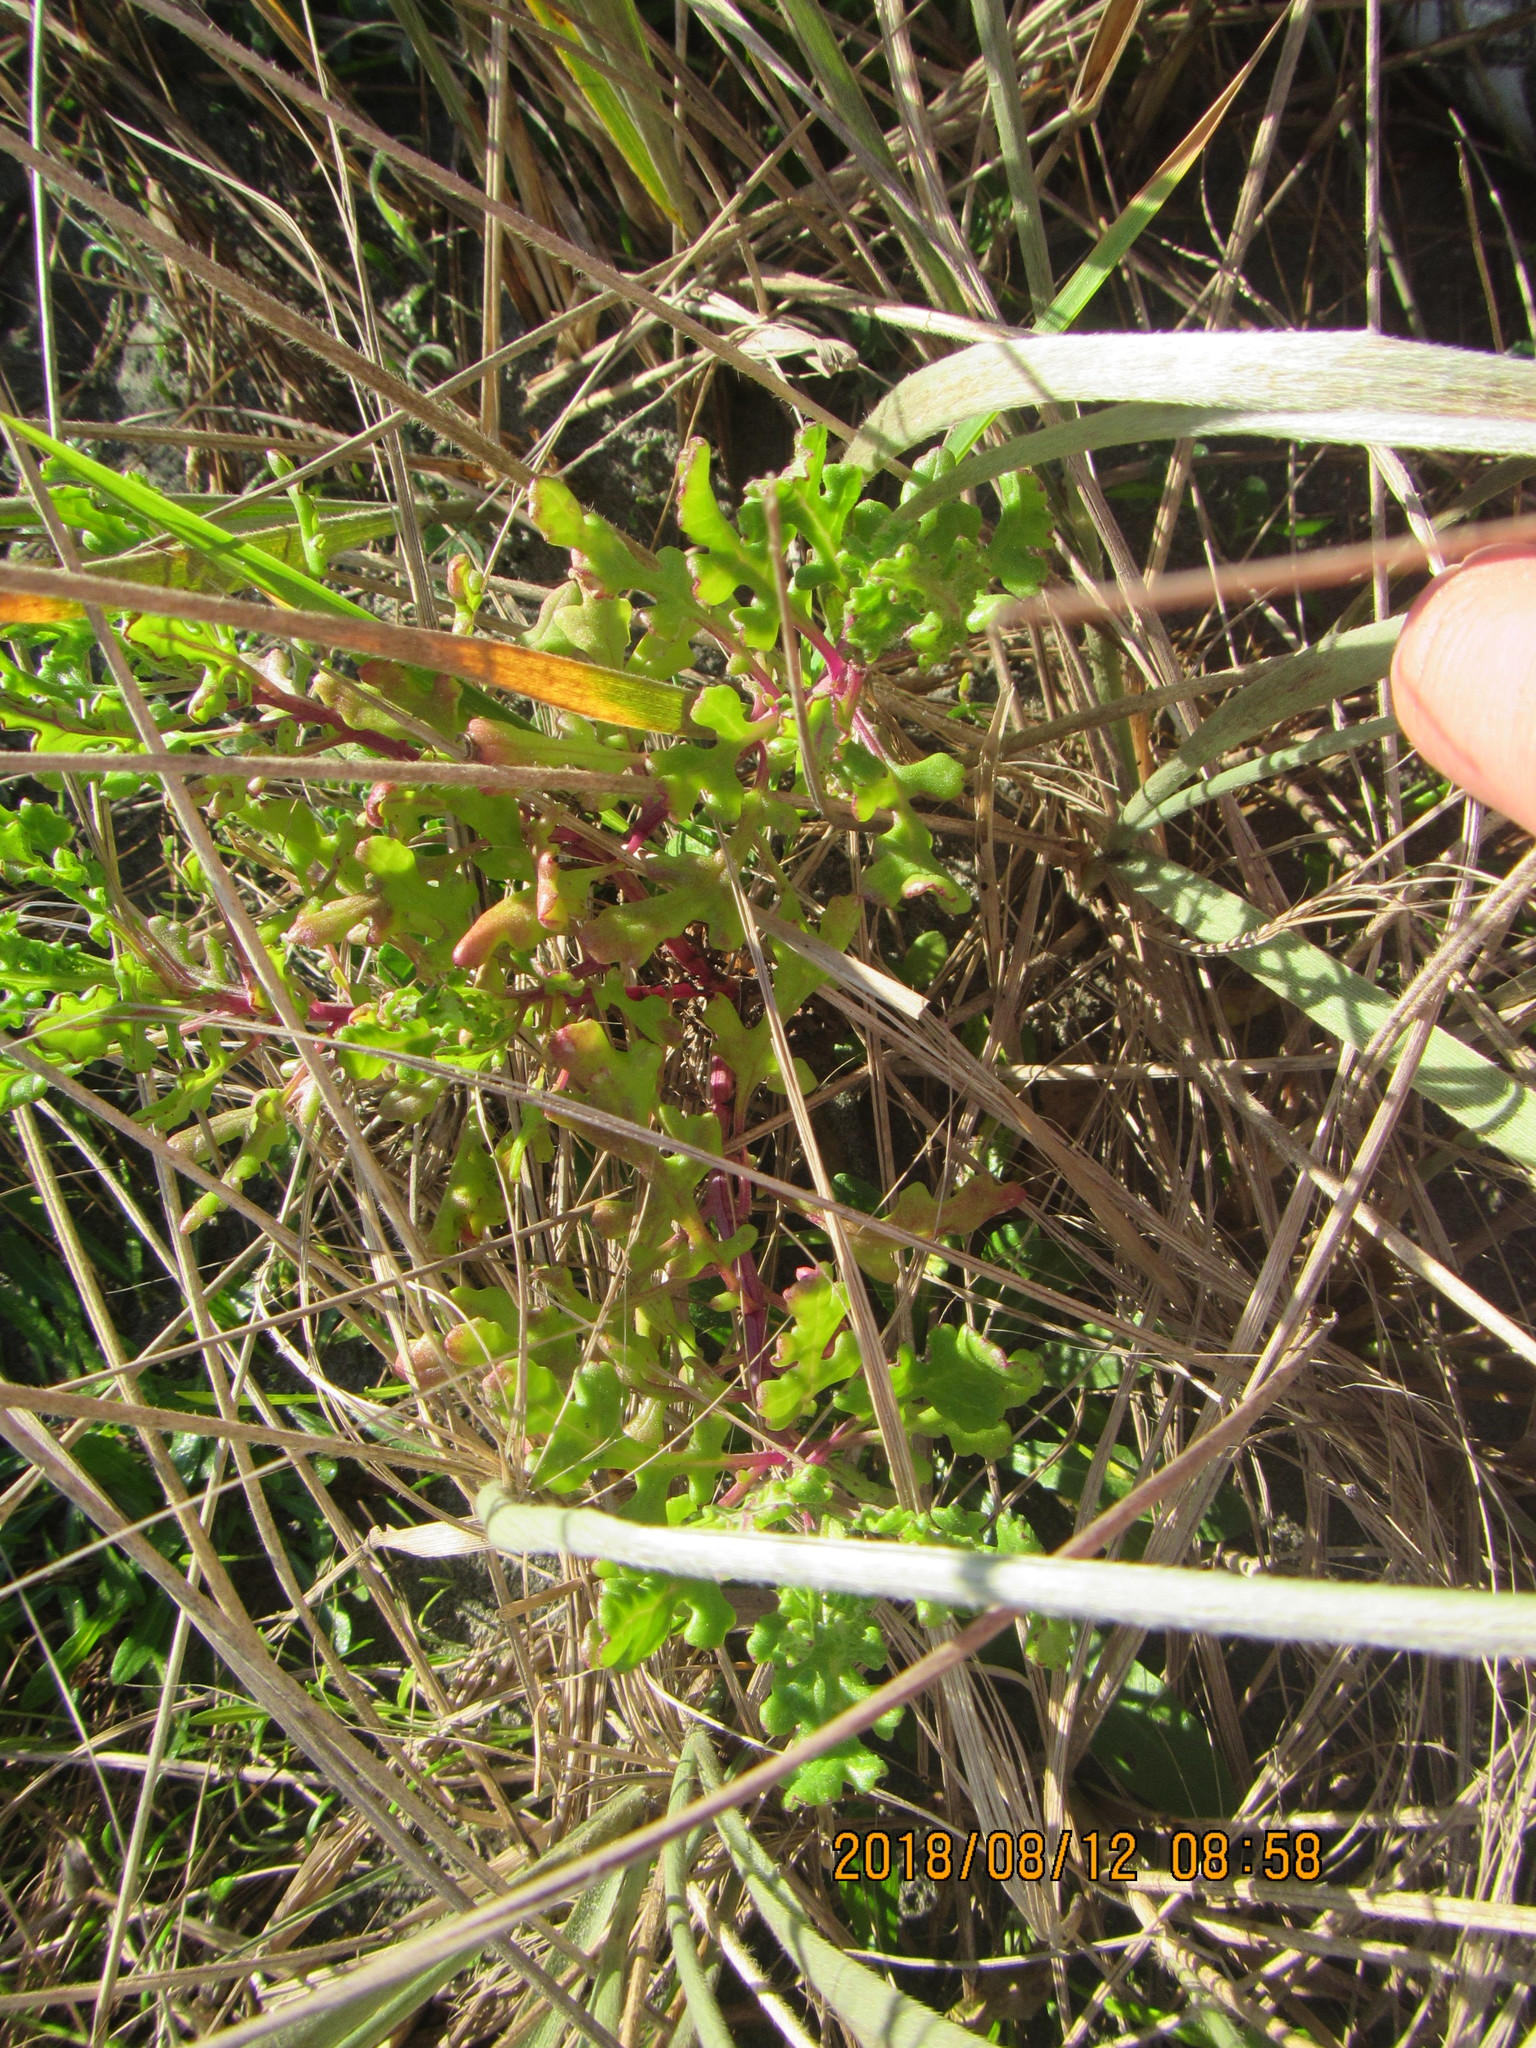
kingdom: Plantae
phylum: Tracheophyta
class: Magnoliopsida
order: Asterales
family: Asteraceae
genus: Senecio
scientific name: Senecio elegans
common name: Purple groundsel
